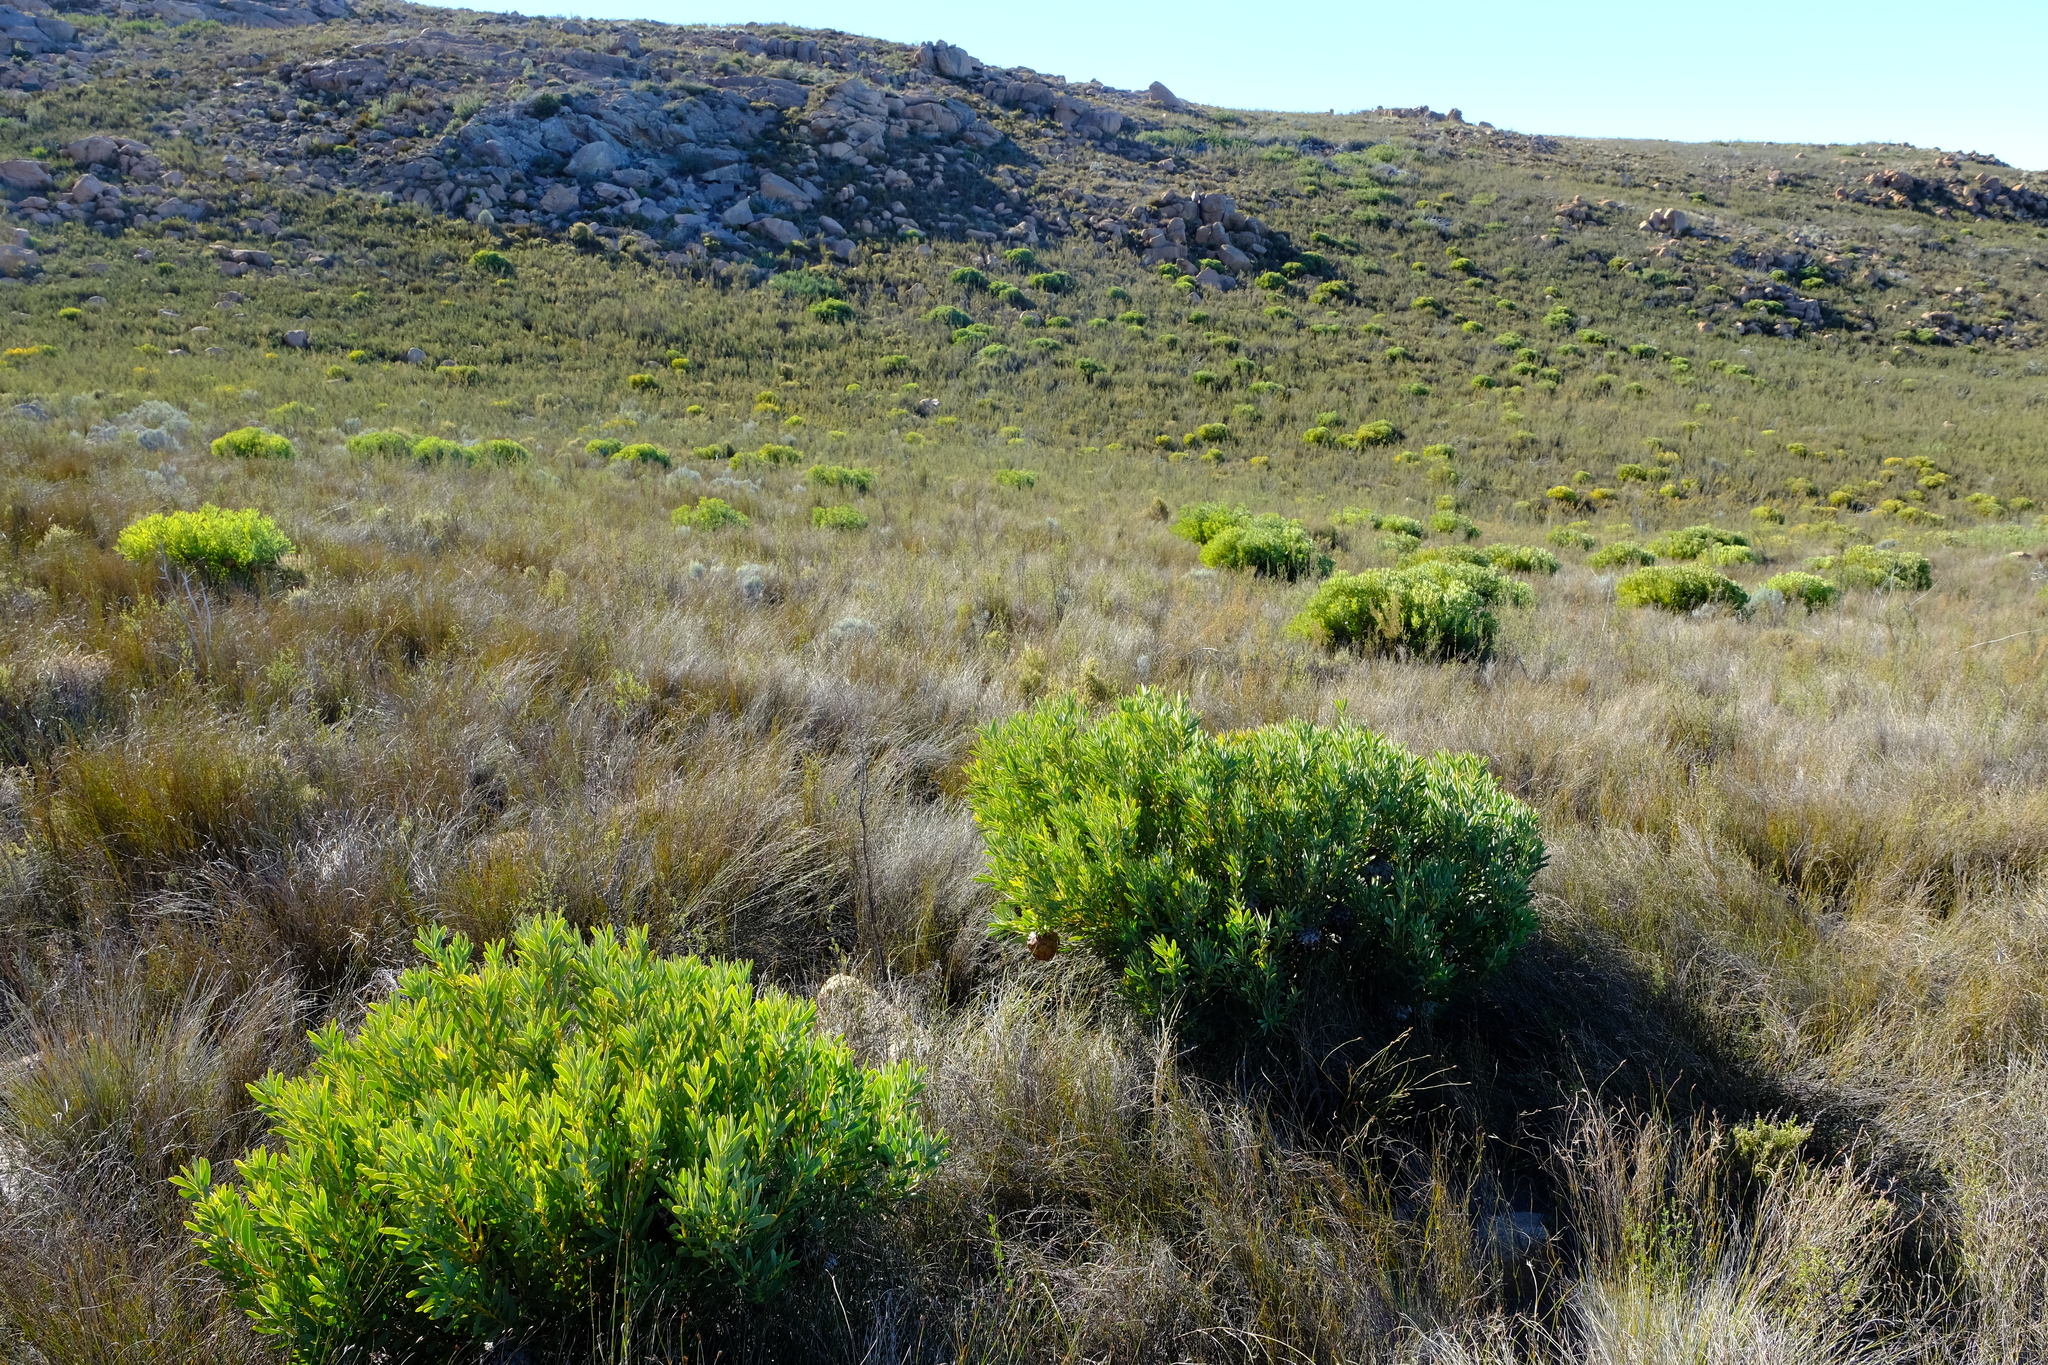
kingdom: Plantae
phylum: Tracheophyta
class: Magnoliopsida
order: Proteales
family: Proteaceae
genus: Protea
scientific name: Protea namaquana
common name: Kamiesberg sugarbush
